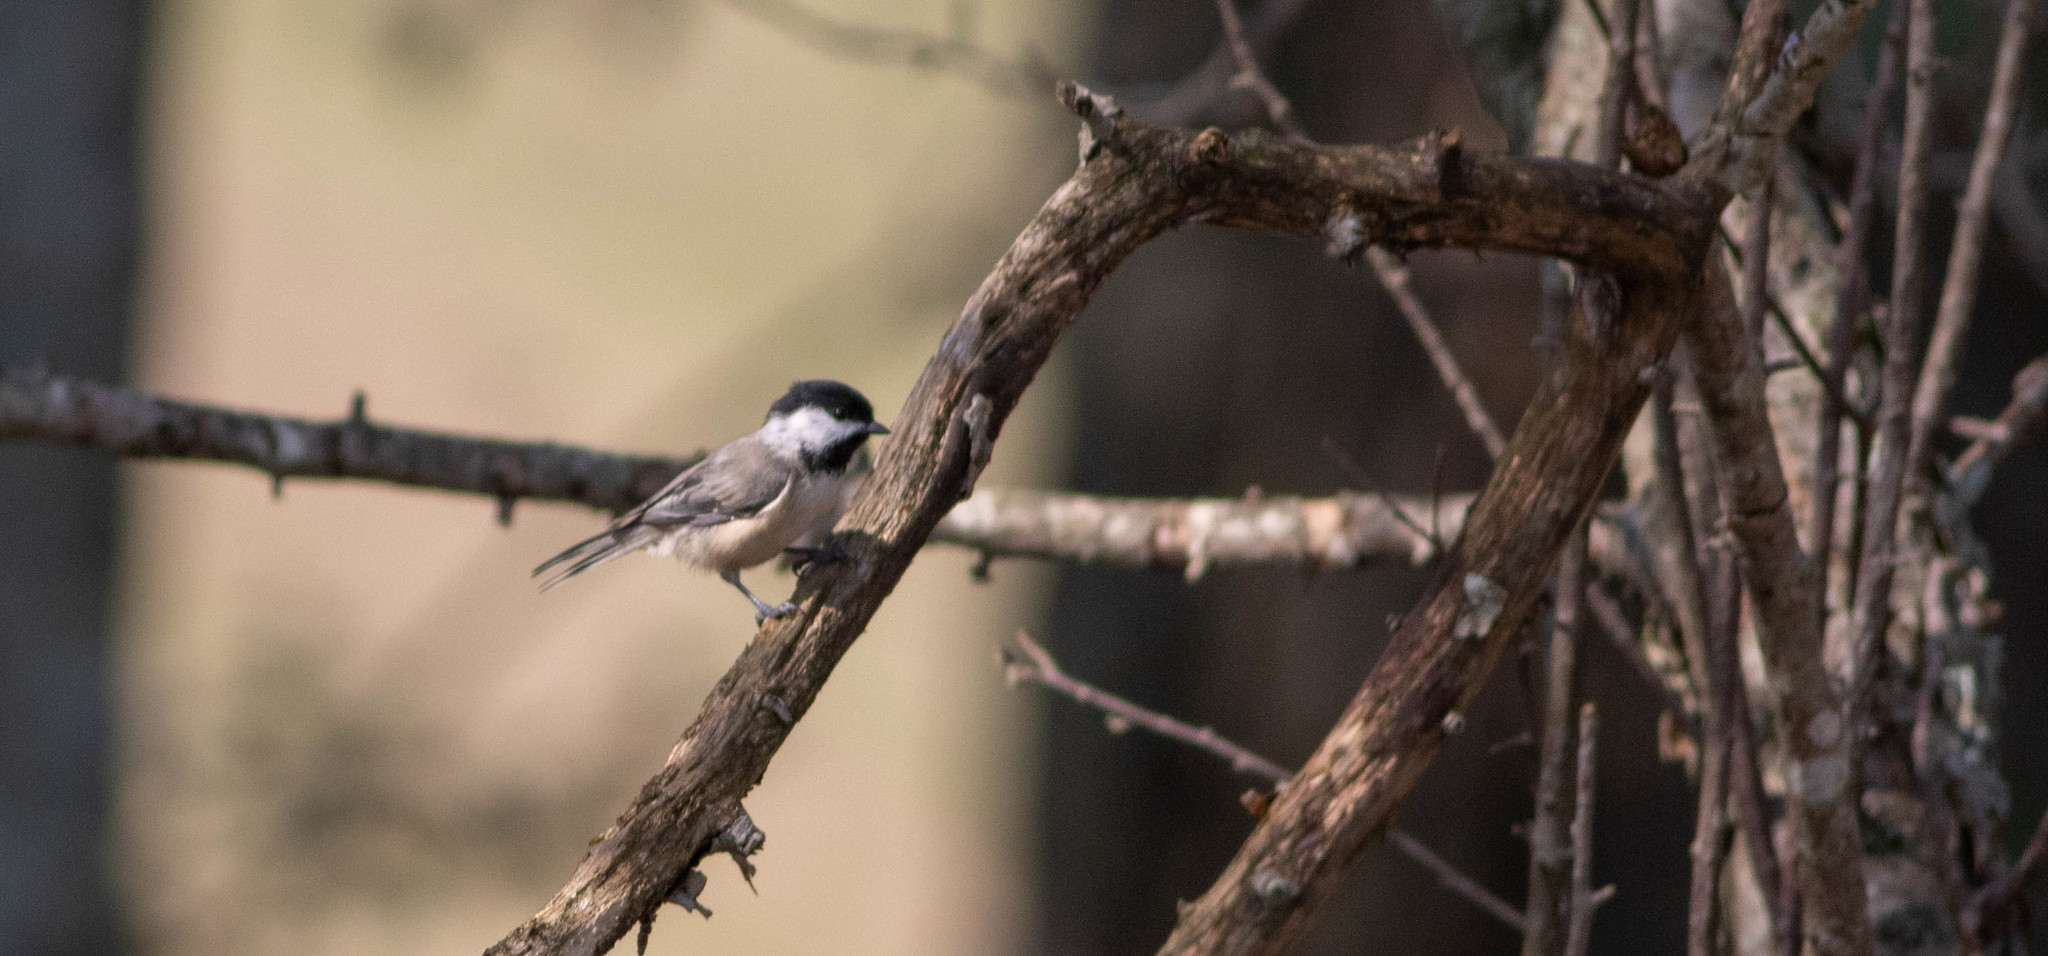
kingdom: Animalia
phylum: Chordata
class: Aves
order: Passeriformes
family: Paridae
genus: Poecile
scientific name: Poecile carolinensis
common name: Carolina chickadee
